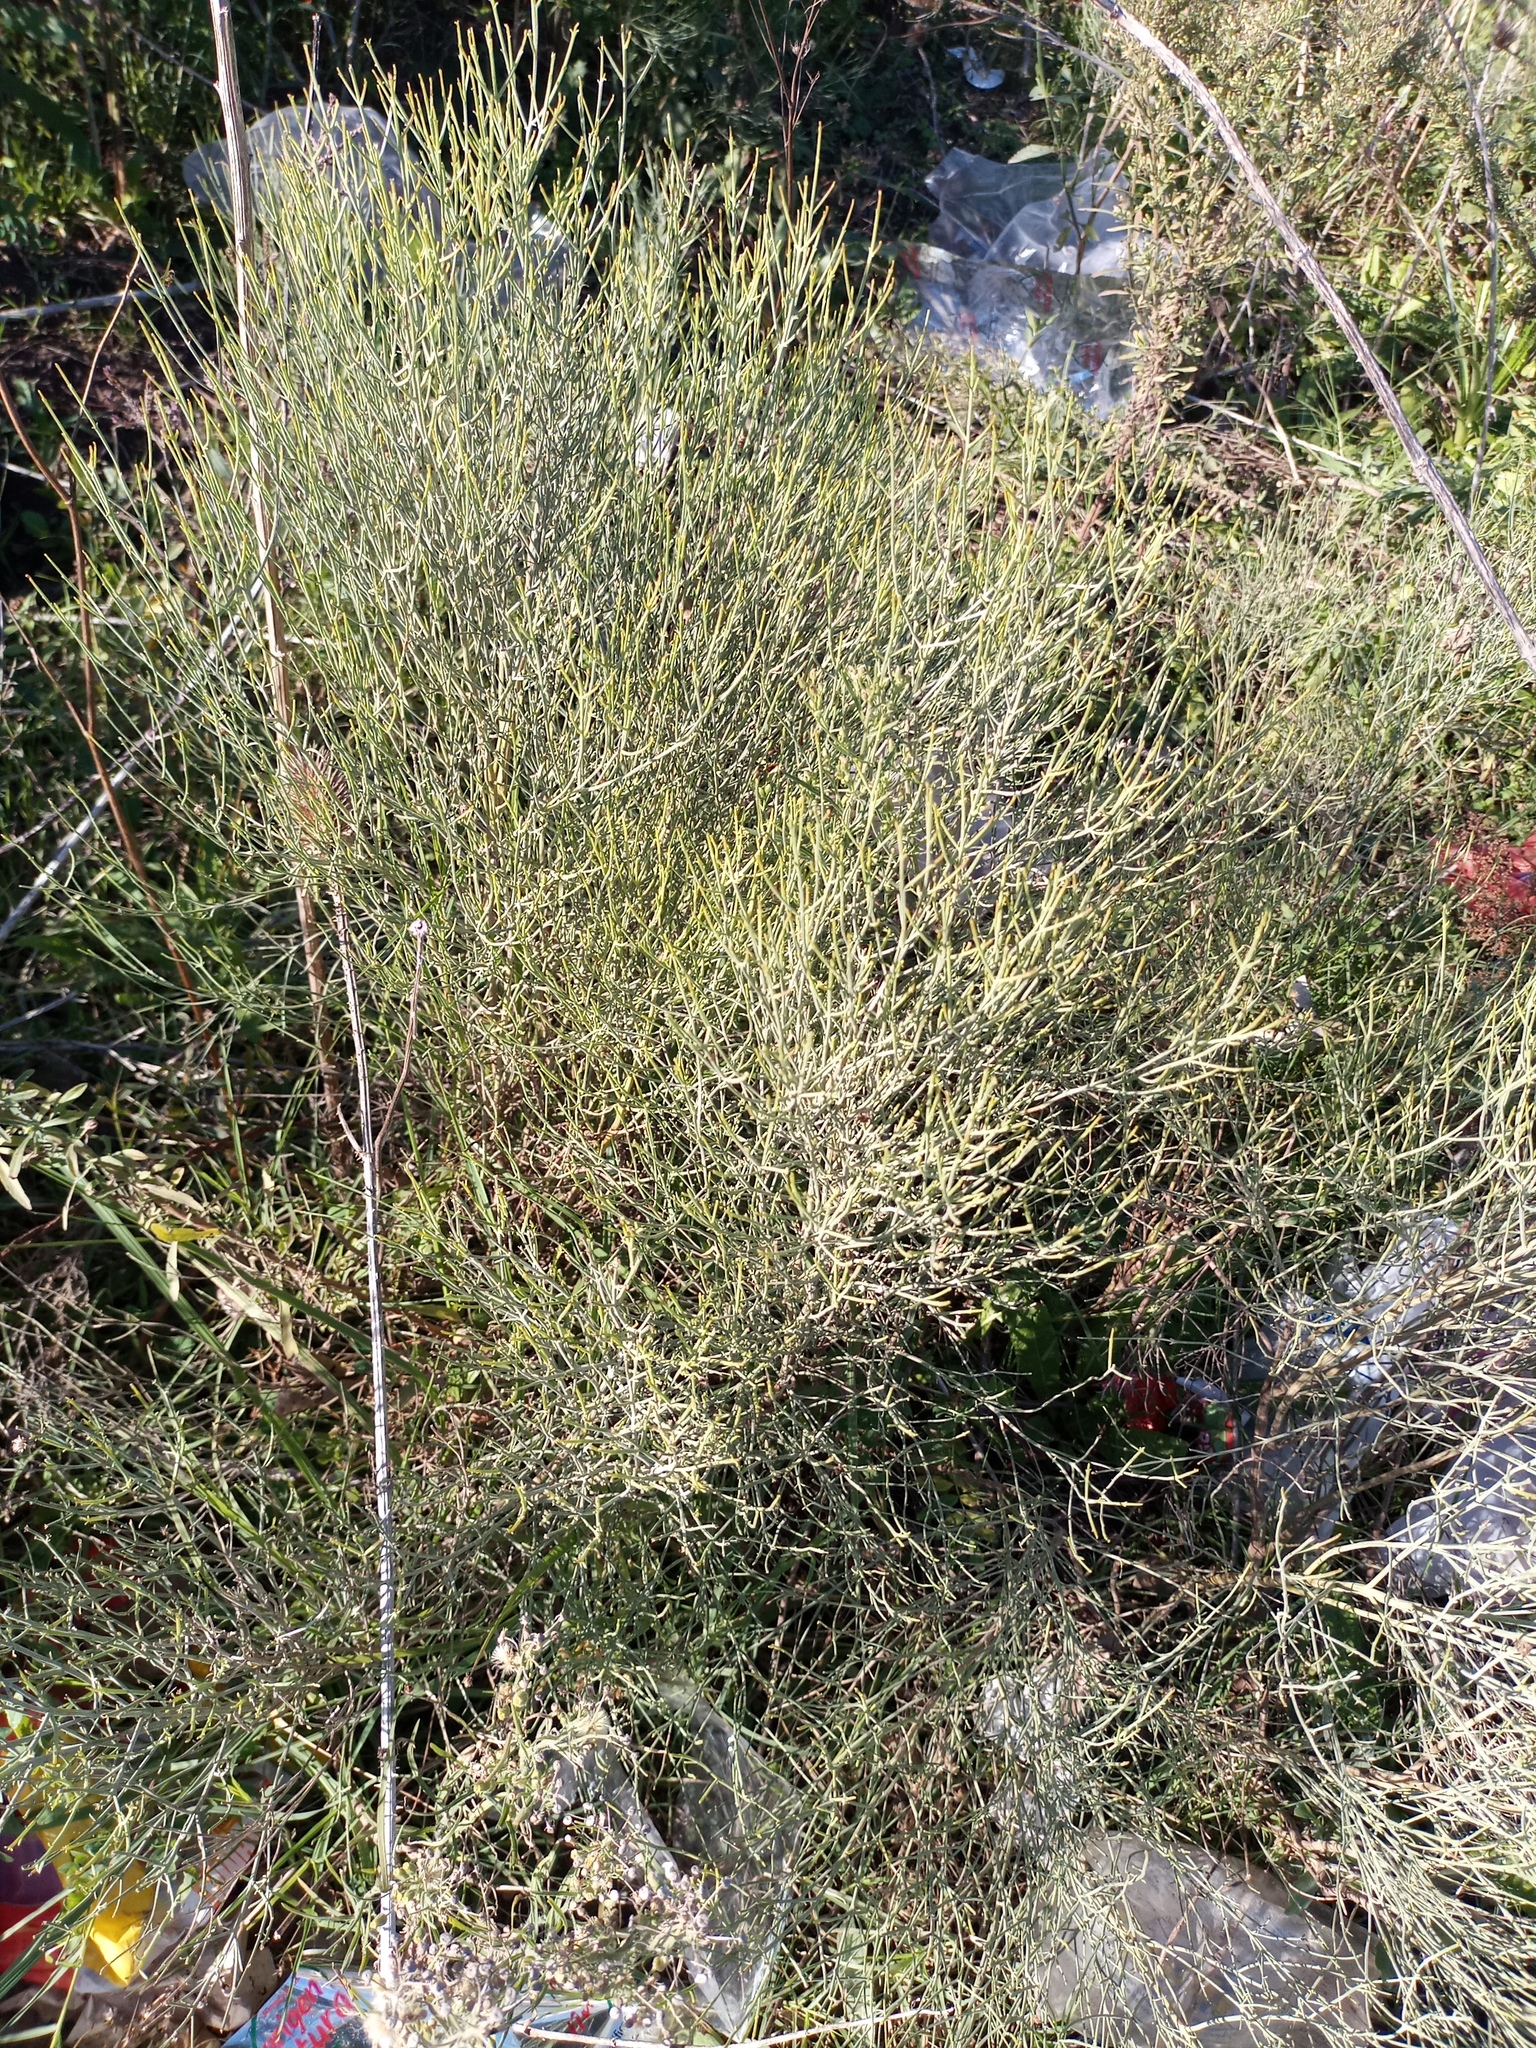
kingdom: Plantae
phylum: Tracheophyta
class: Magnoliopsida
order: Asterales
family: Asteraceae
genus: Baccharis
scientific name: Baccharis notosergila
